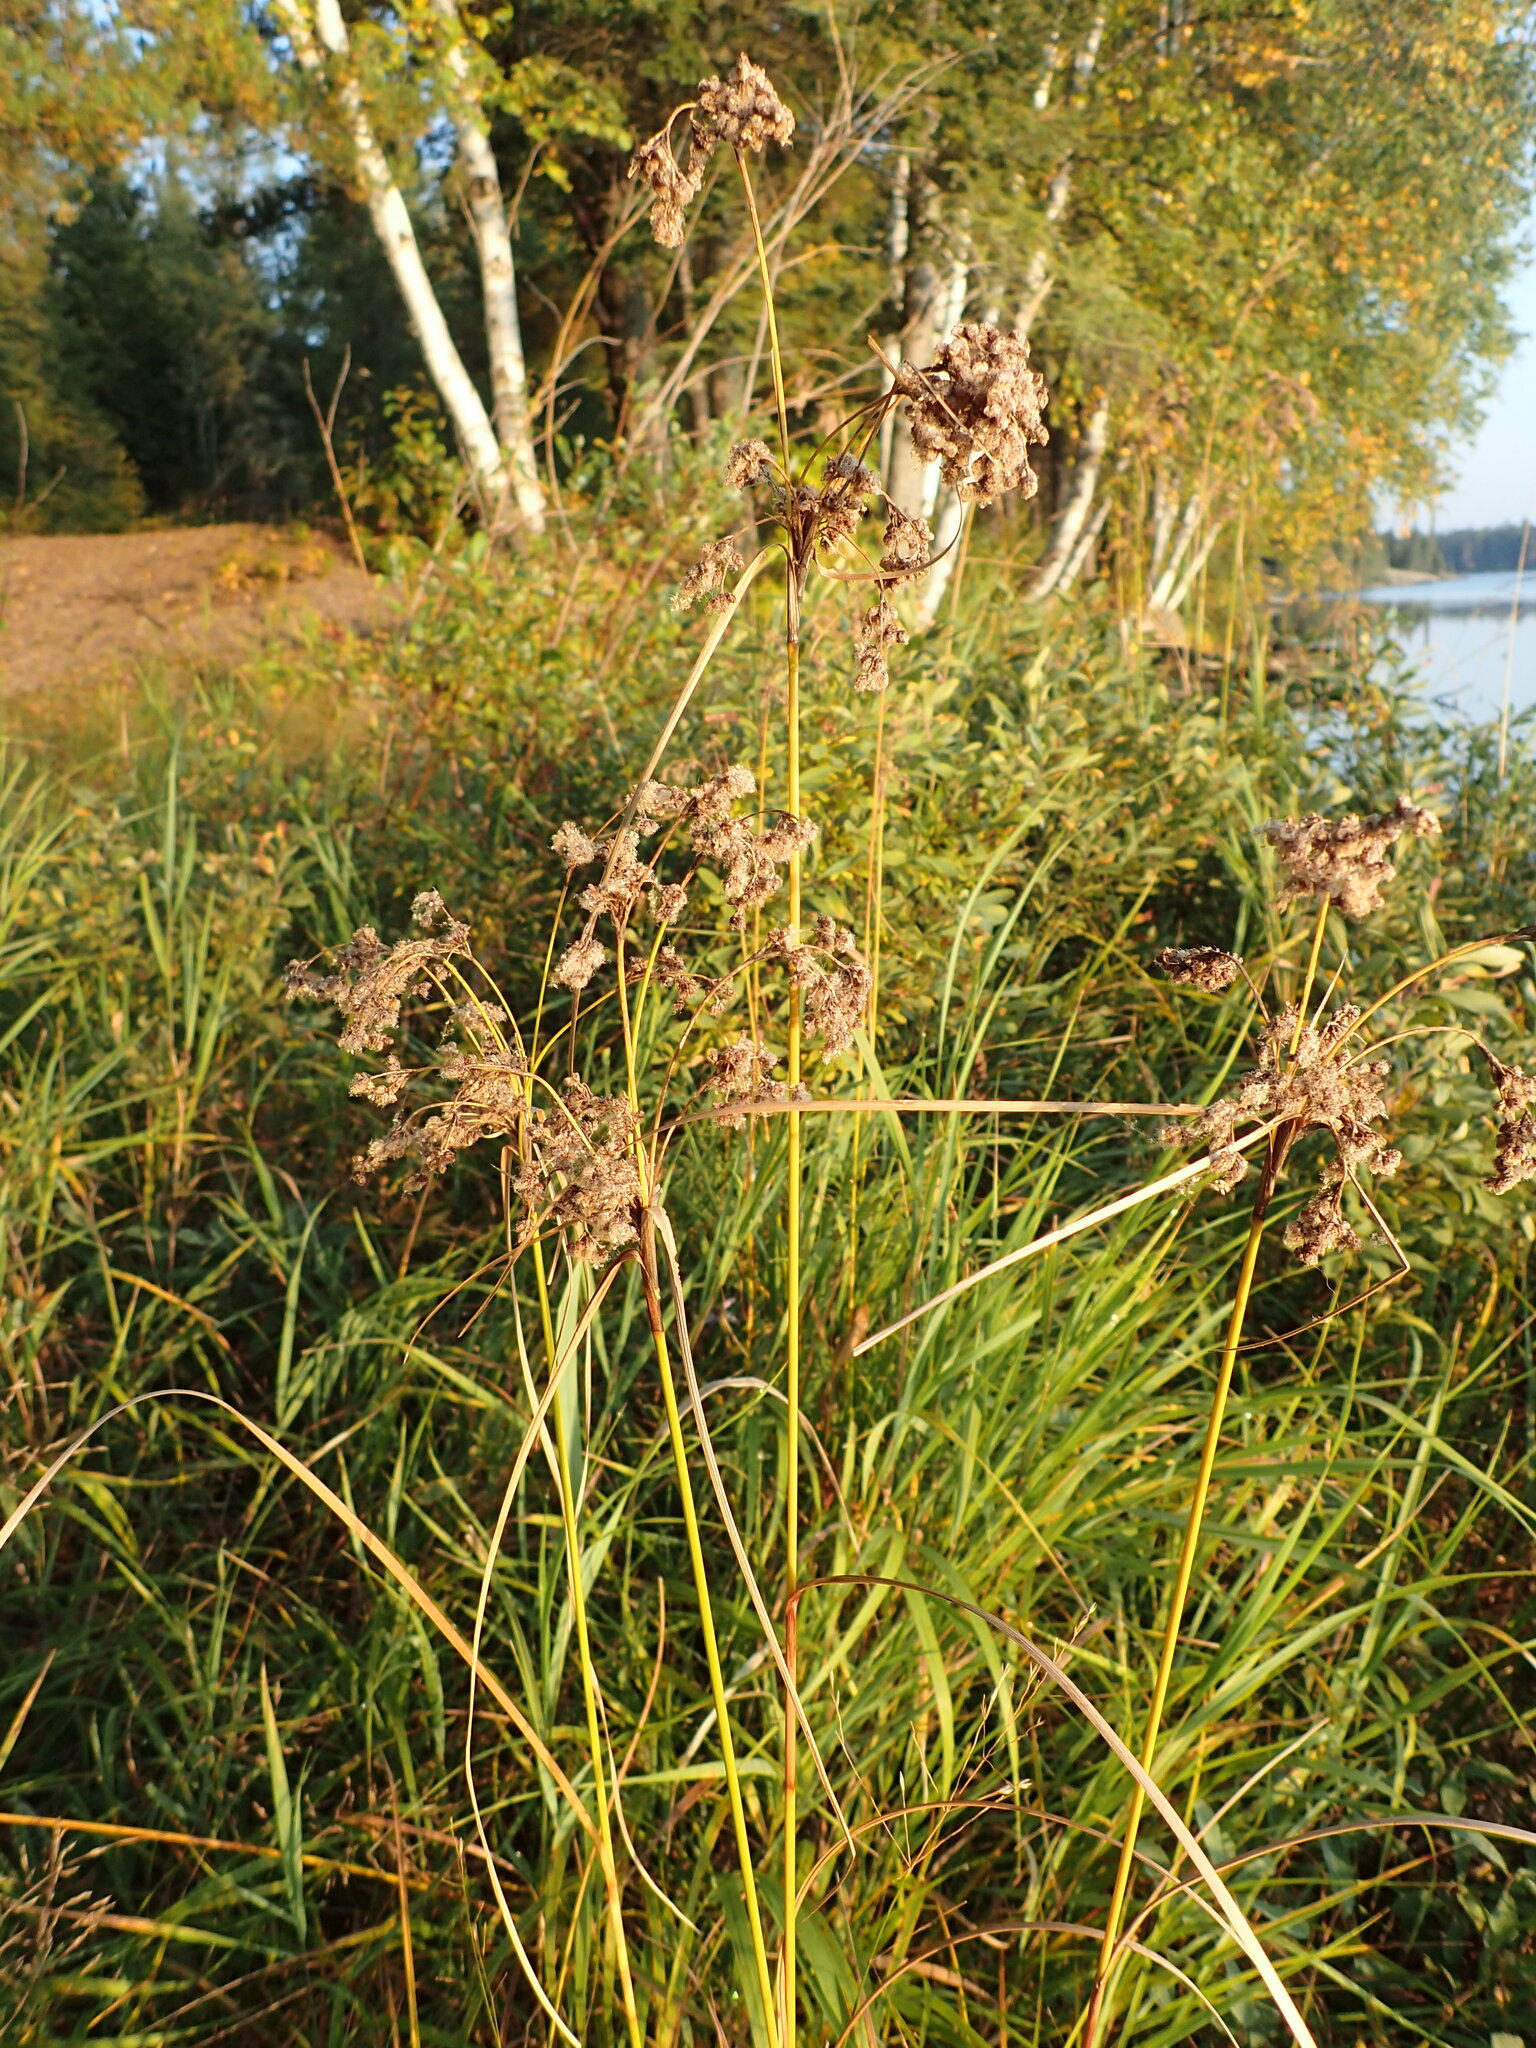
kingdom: Plantae
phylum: Tracheophyta
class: Liliopsida
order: Poales
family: Cyperaceae
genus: Scirpus
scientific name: Scirpus cyperinus
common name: Black-sheathed bulrush
